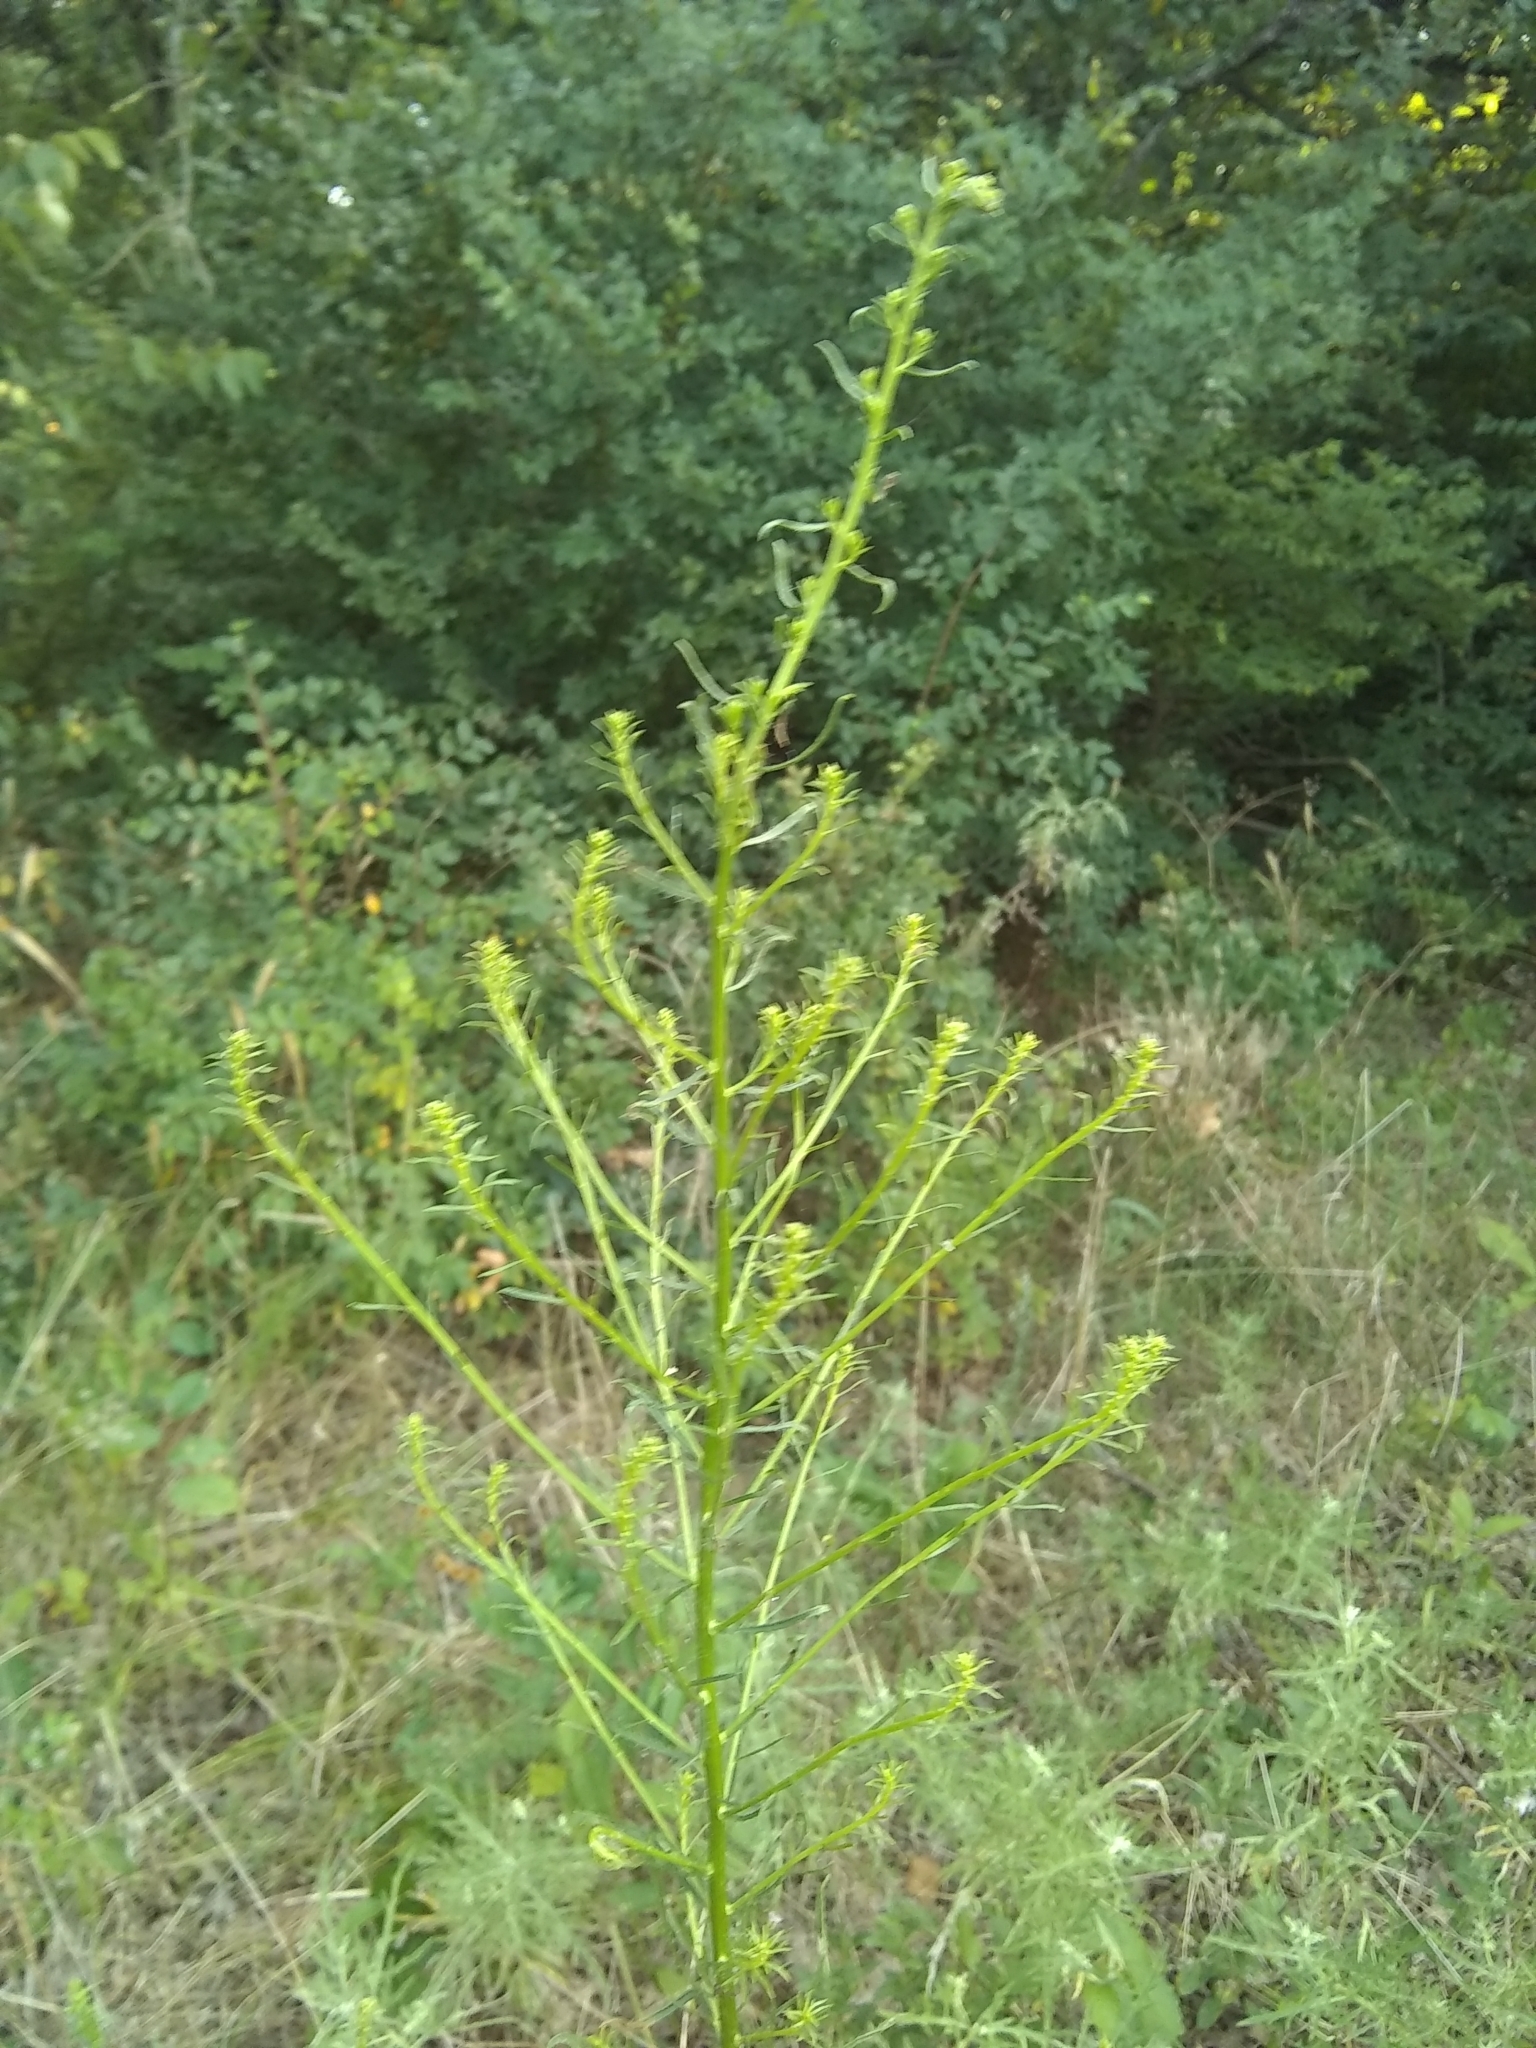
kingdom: Plantae
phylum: Tracheophyta
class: Magnoliopsida
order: Asterales
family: Asteraceae
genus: Erigeron
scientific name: Erigeron canadensis
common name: Canadian fleabane
